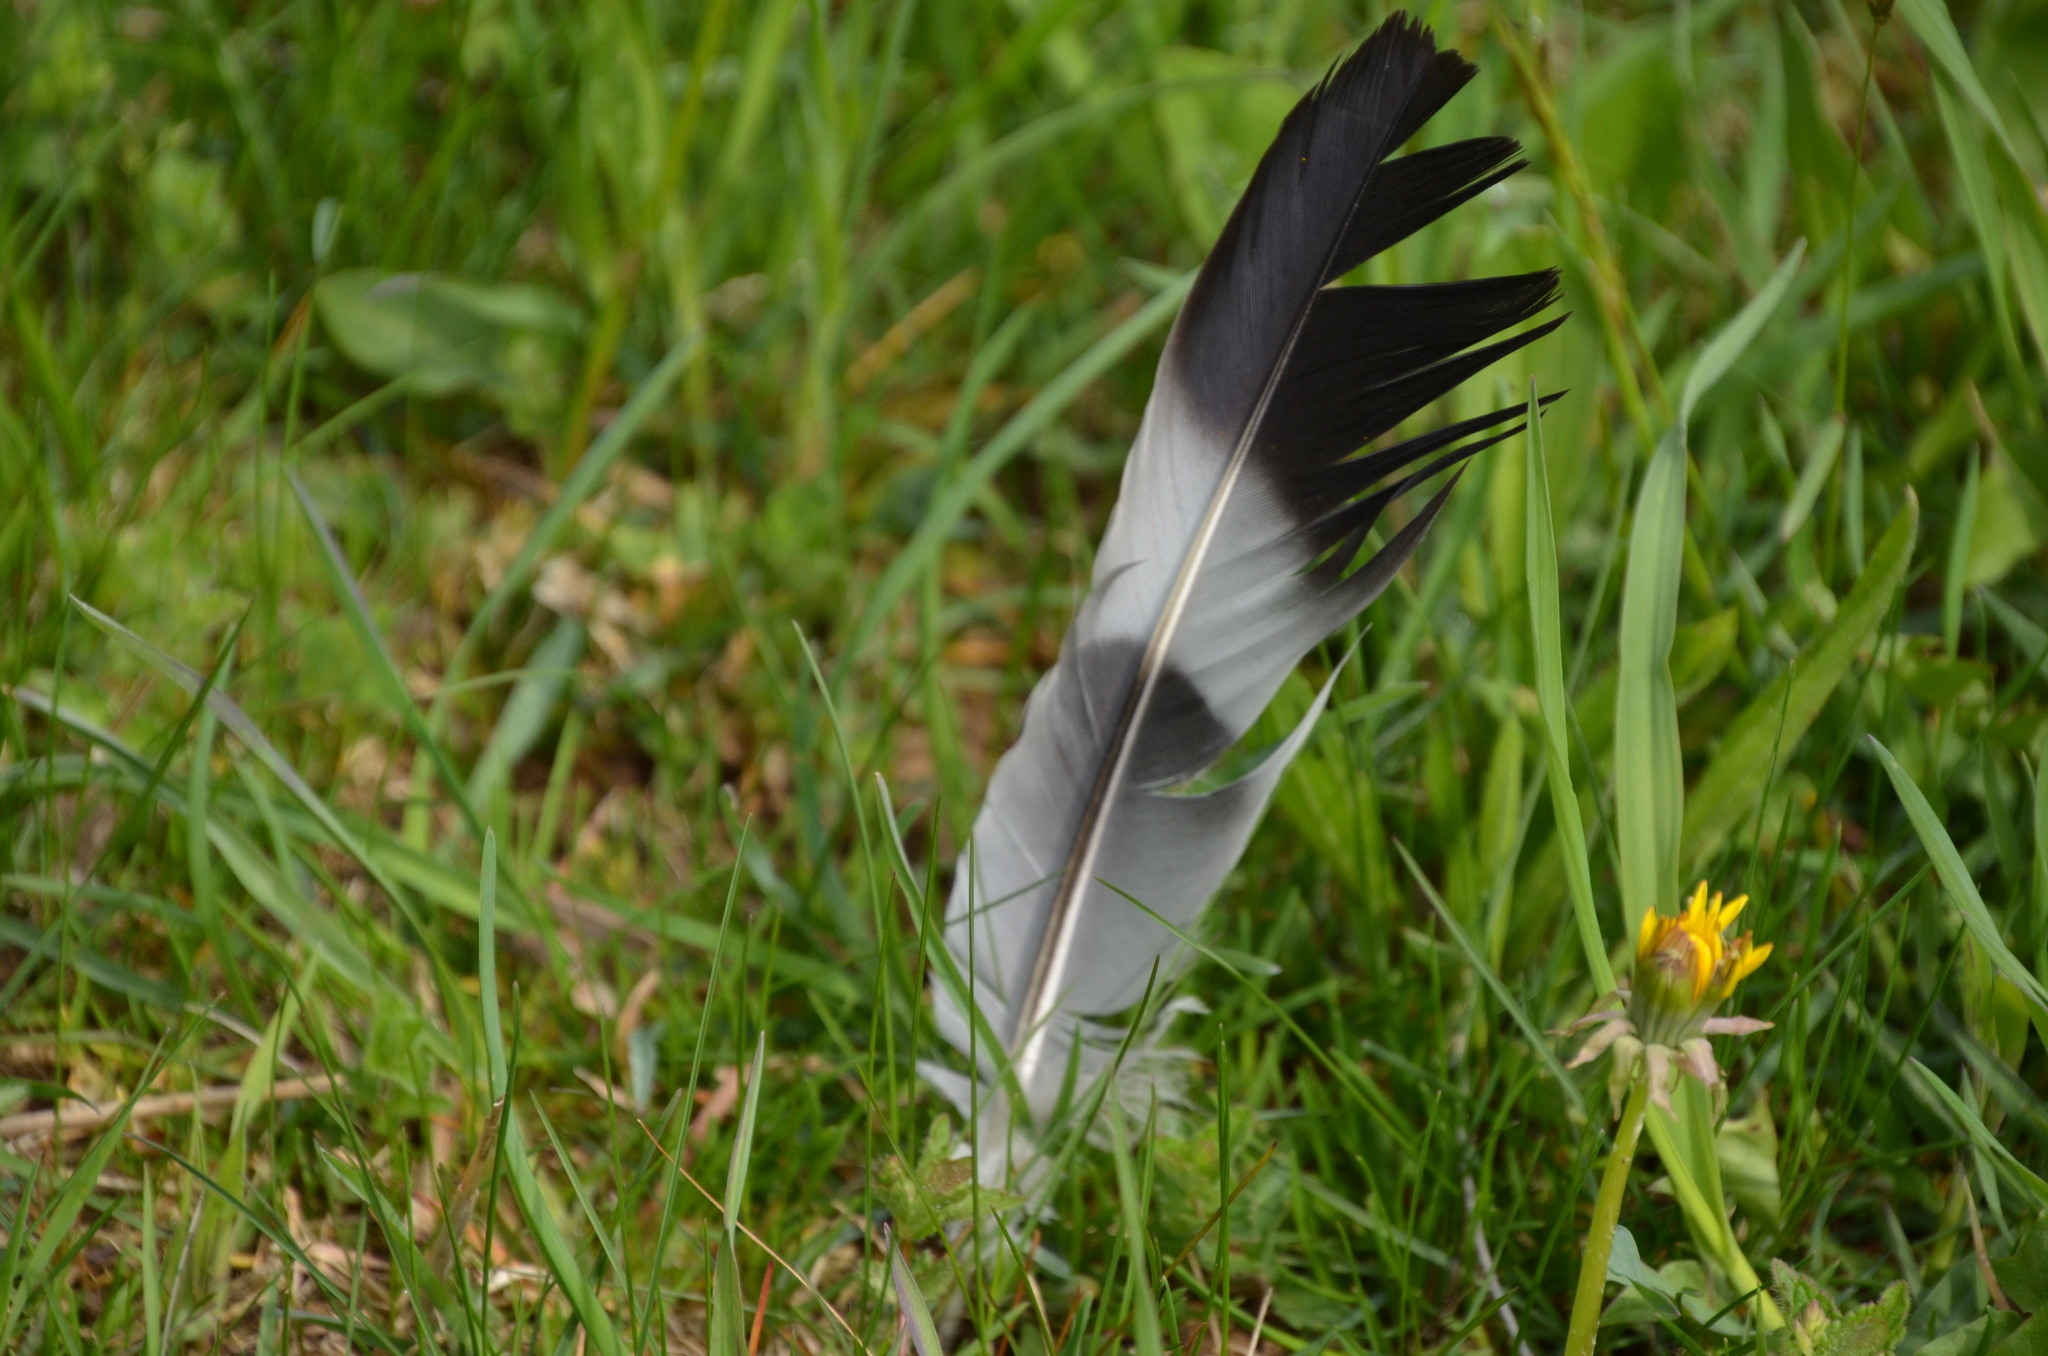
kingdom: Animalia
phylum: Chordata
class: Aves
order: Columbiformes
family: Columbidae
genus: Columba
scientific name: Columba palumbus
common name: Common wood pigeon
